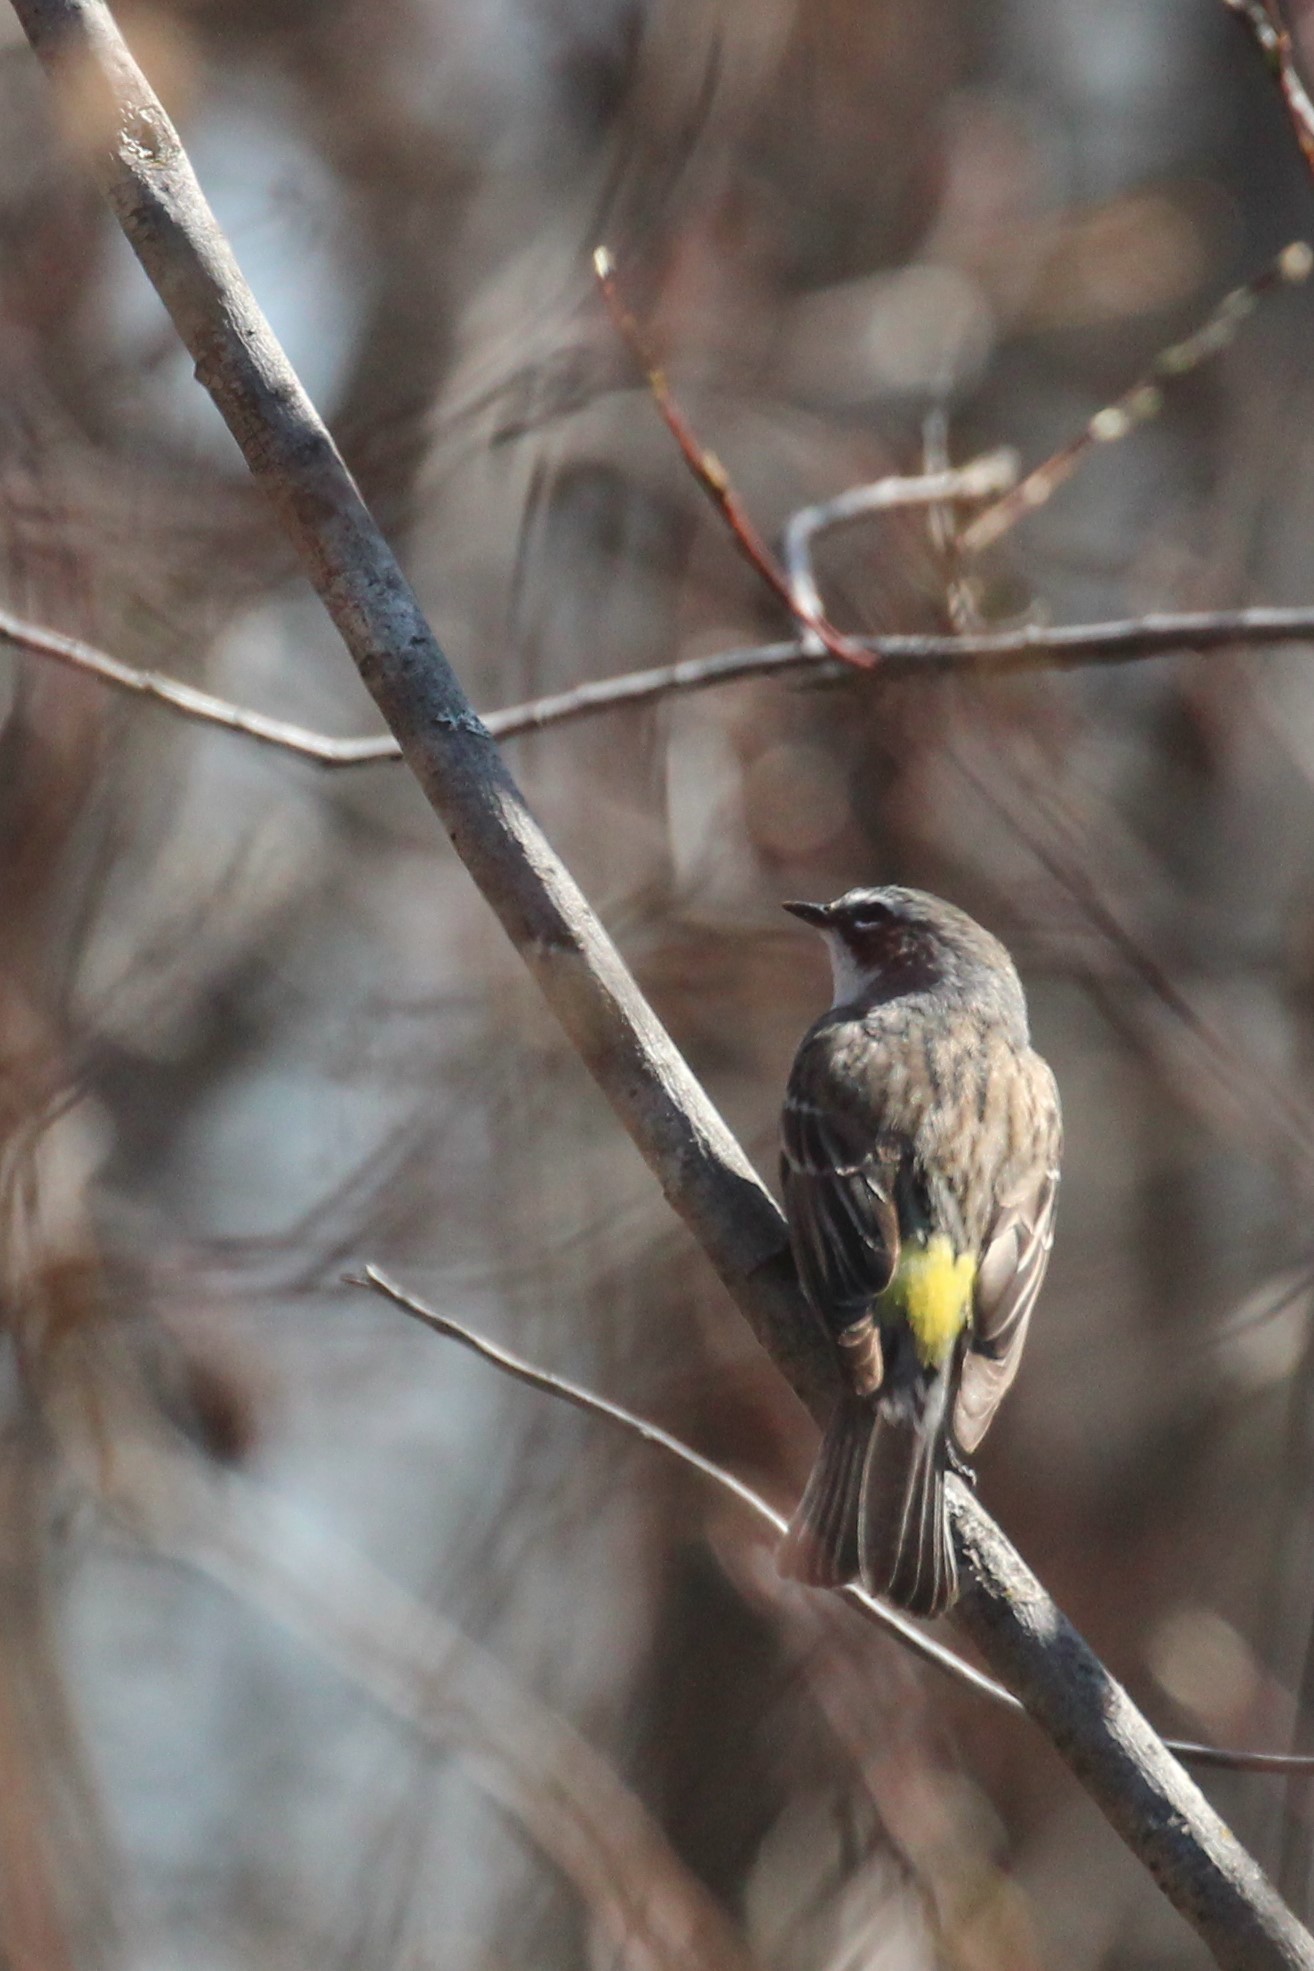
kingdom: Animalia
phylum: Chordata
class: Aves
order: Passeriformes
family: Parulidae
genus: Setophaga
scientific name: Setophaga coronata
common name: Myrtle warbler
